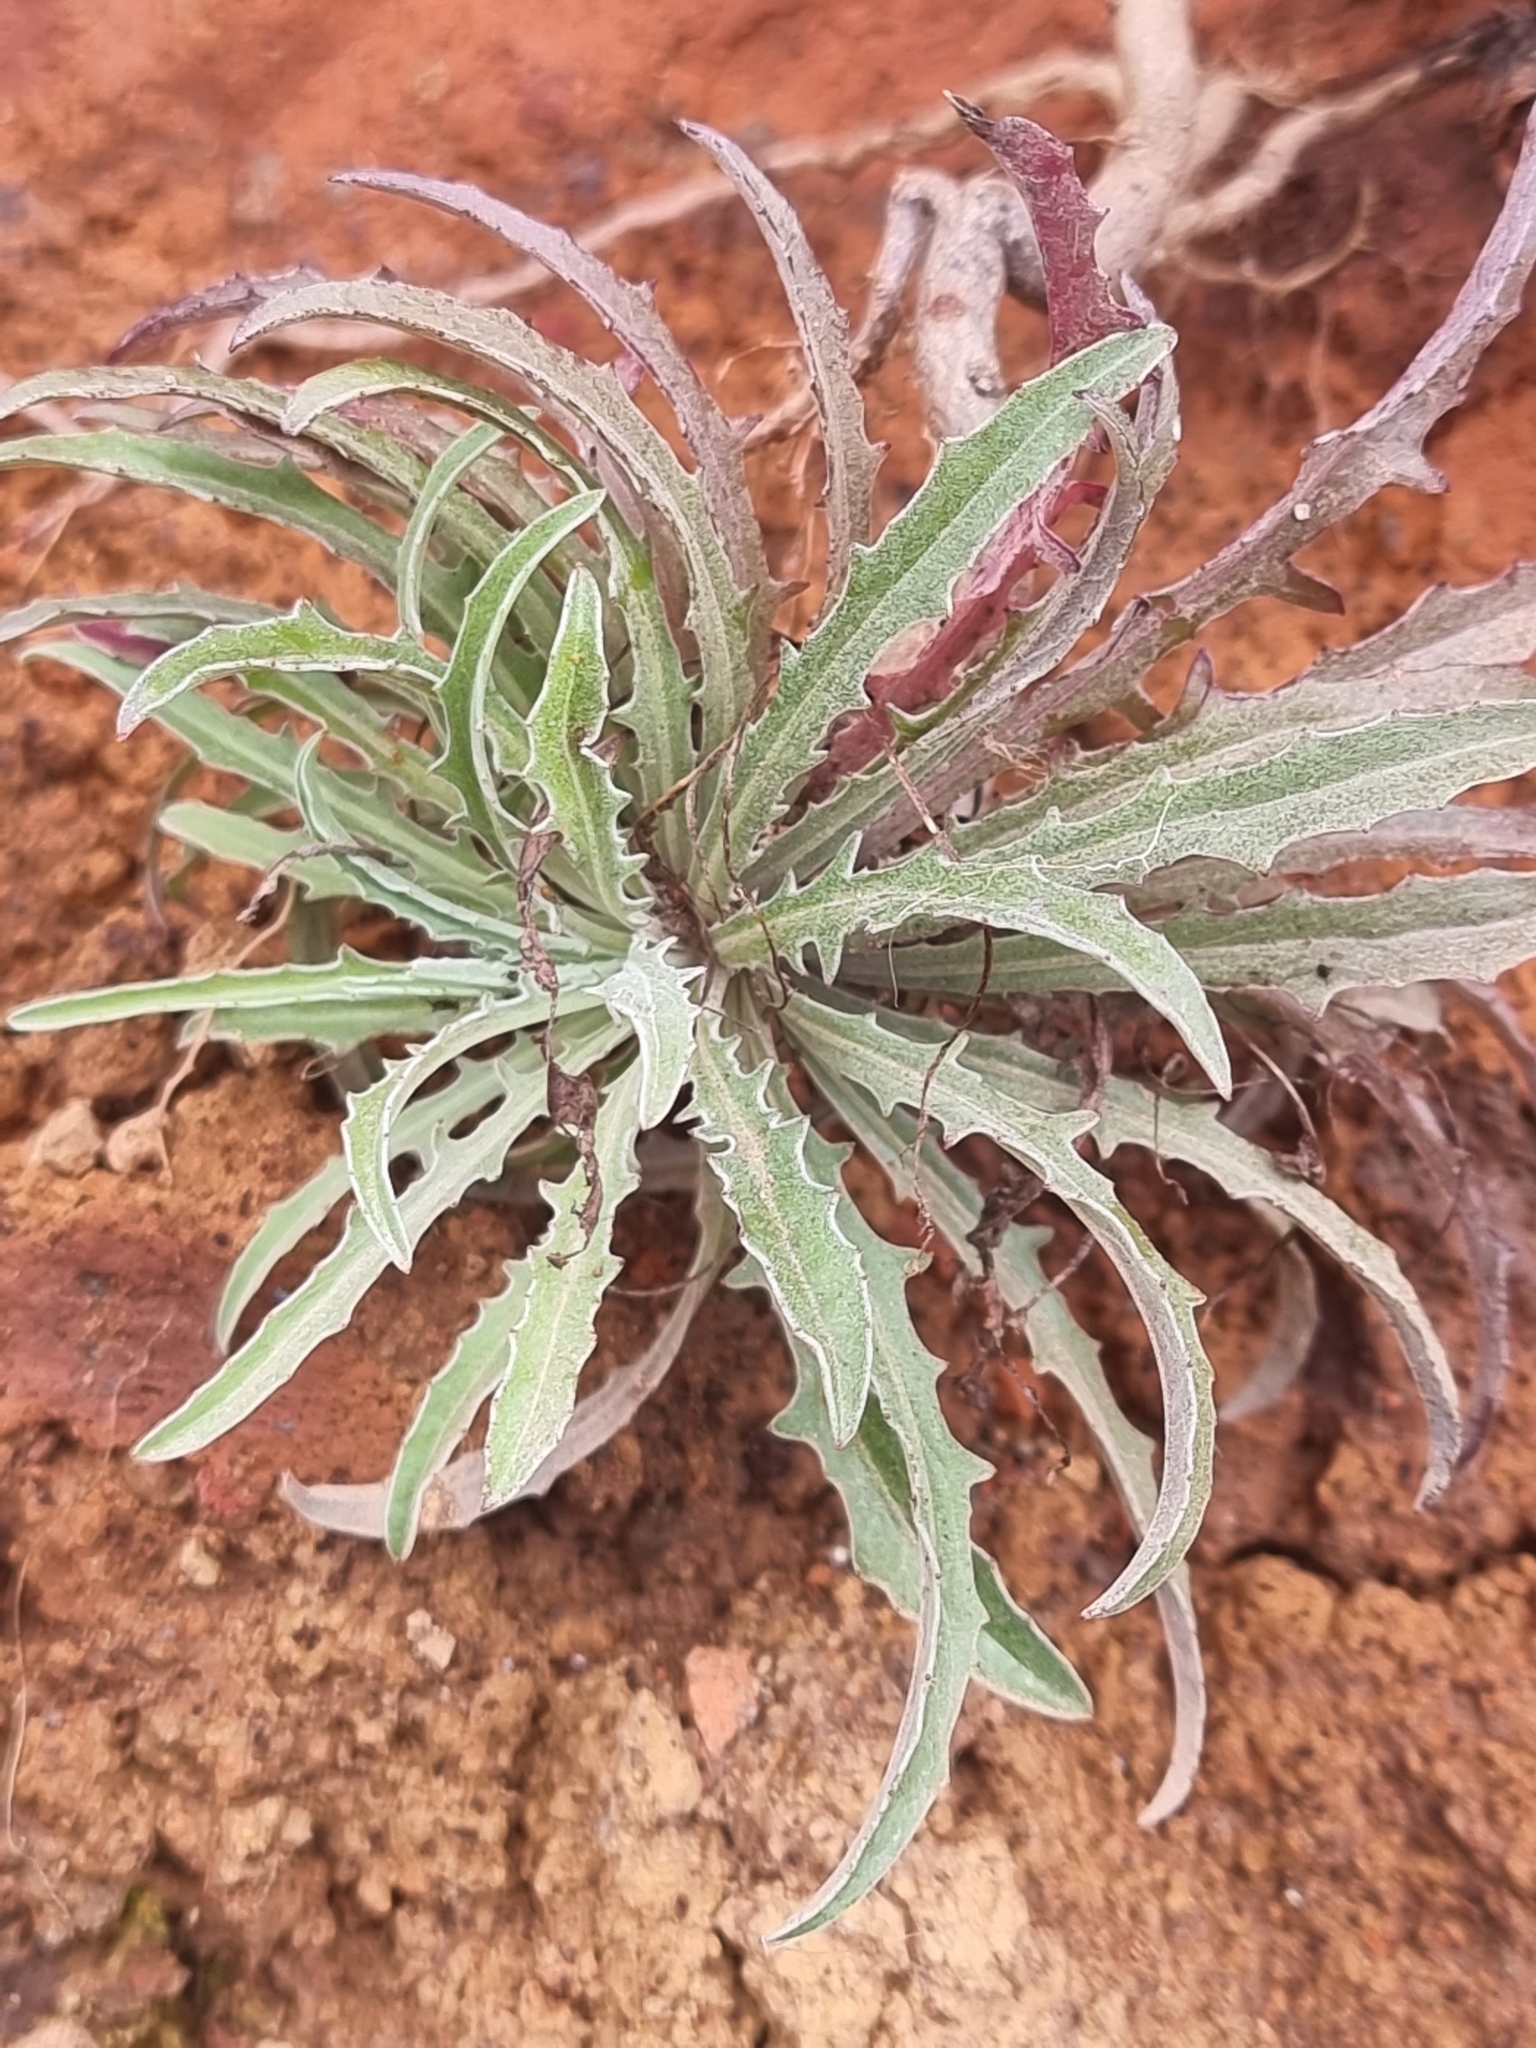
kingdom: Plantae
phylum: Tracheophyta
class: Magnoliopsida
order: Asterales
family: Asteraceae
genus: Andryala
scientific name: Andryala glandulosa
